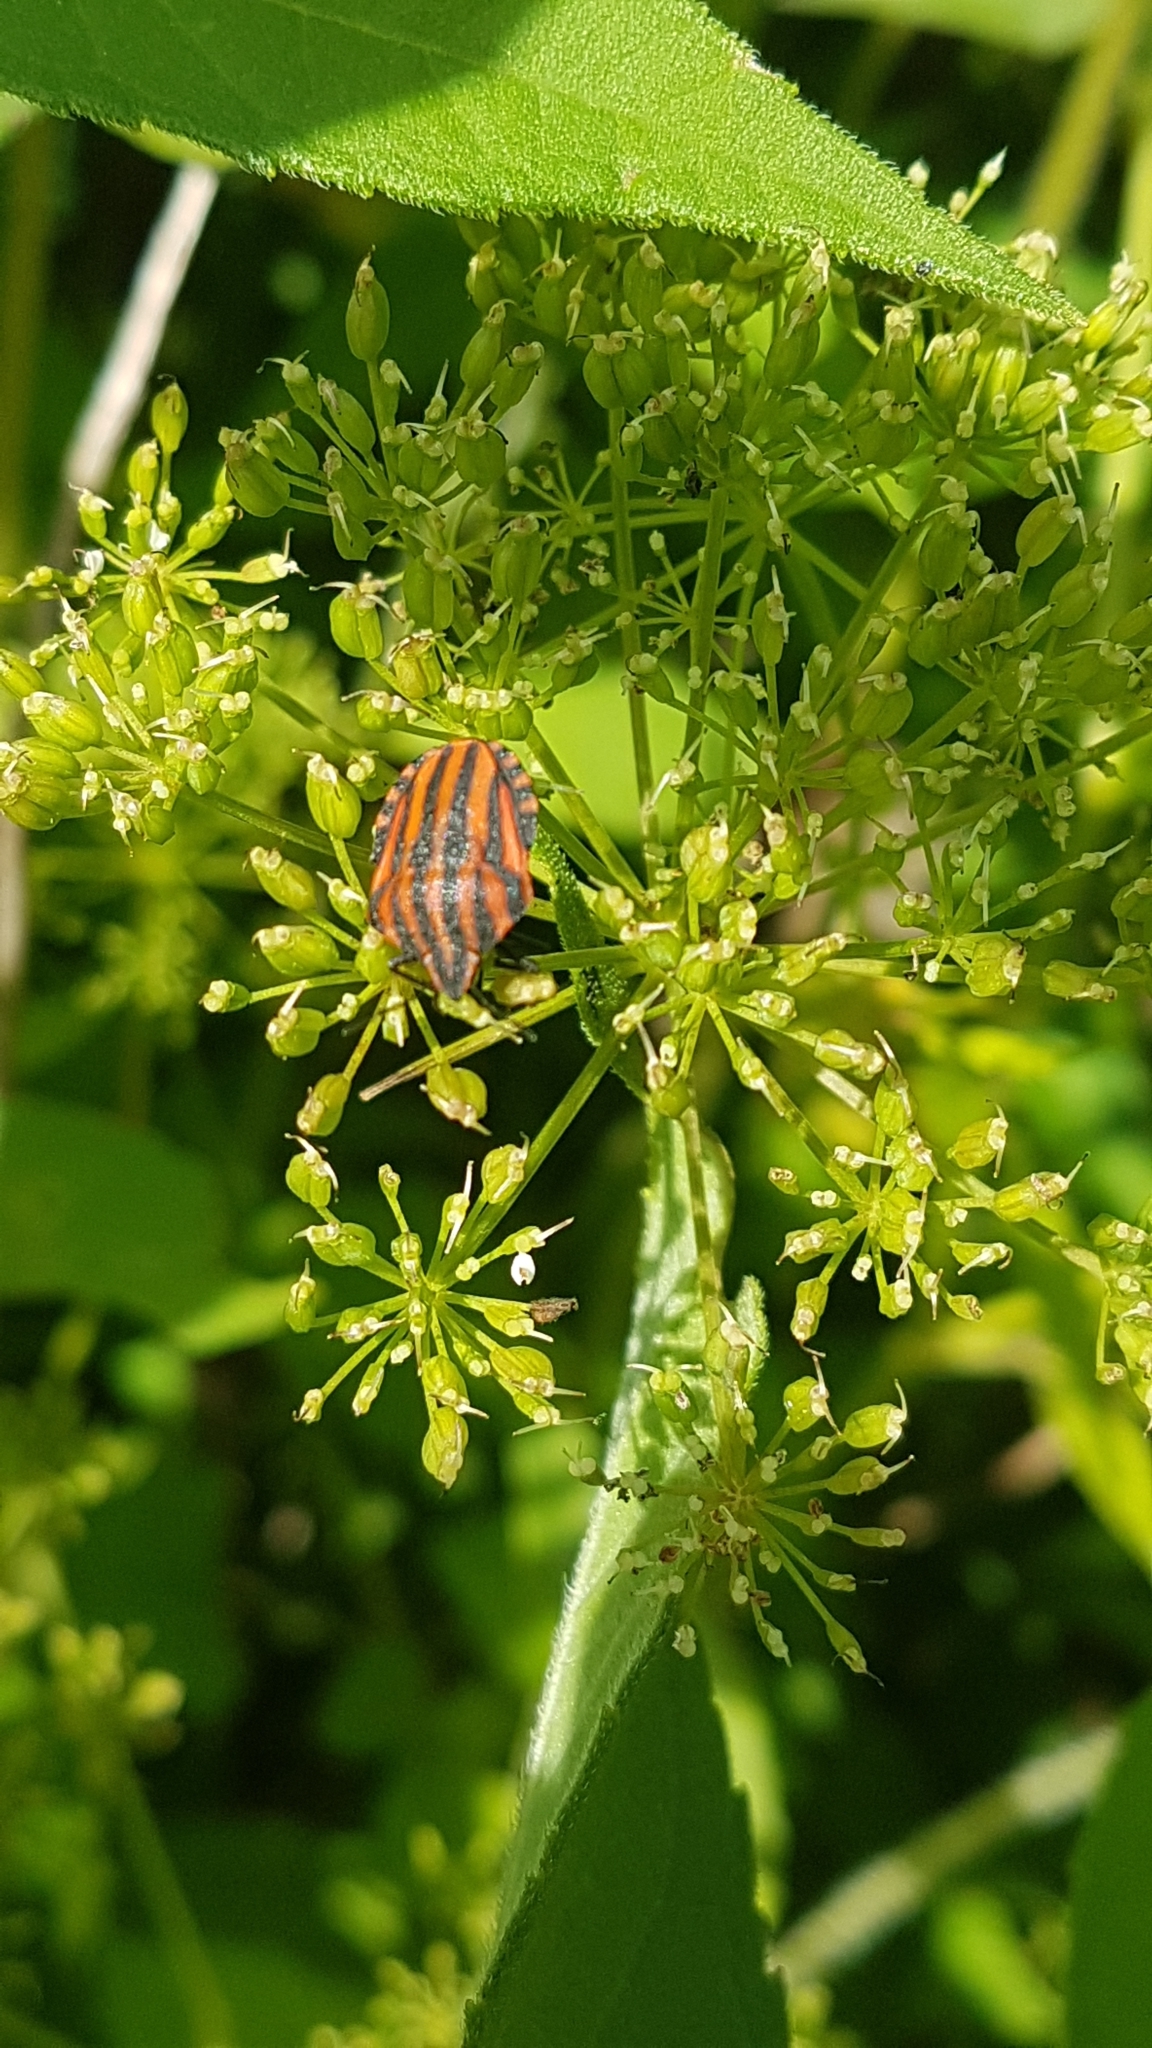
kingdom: Animalia
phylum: Arthropoda
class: Insecta
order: Hemiptera
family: Pentatomidae
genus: Graphosoma
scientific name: Graphosoma italicum
